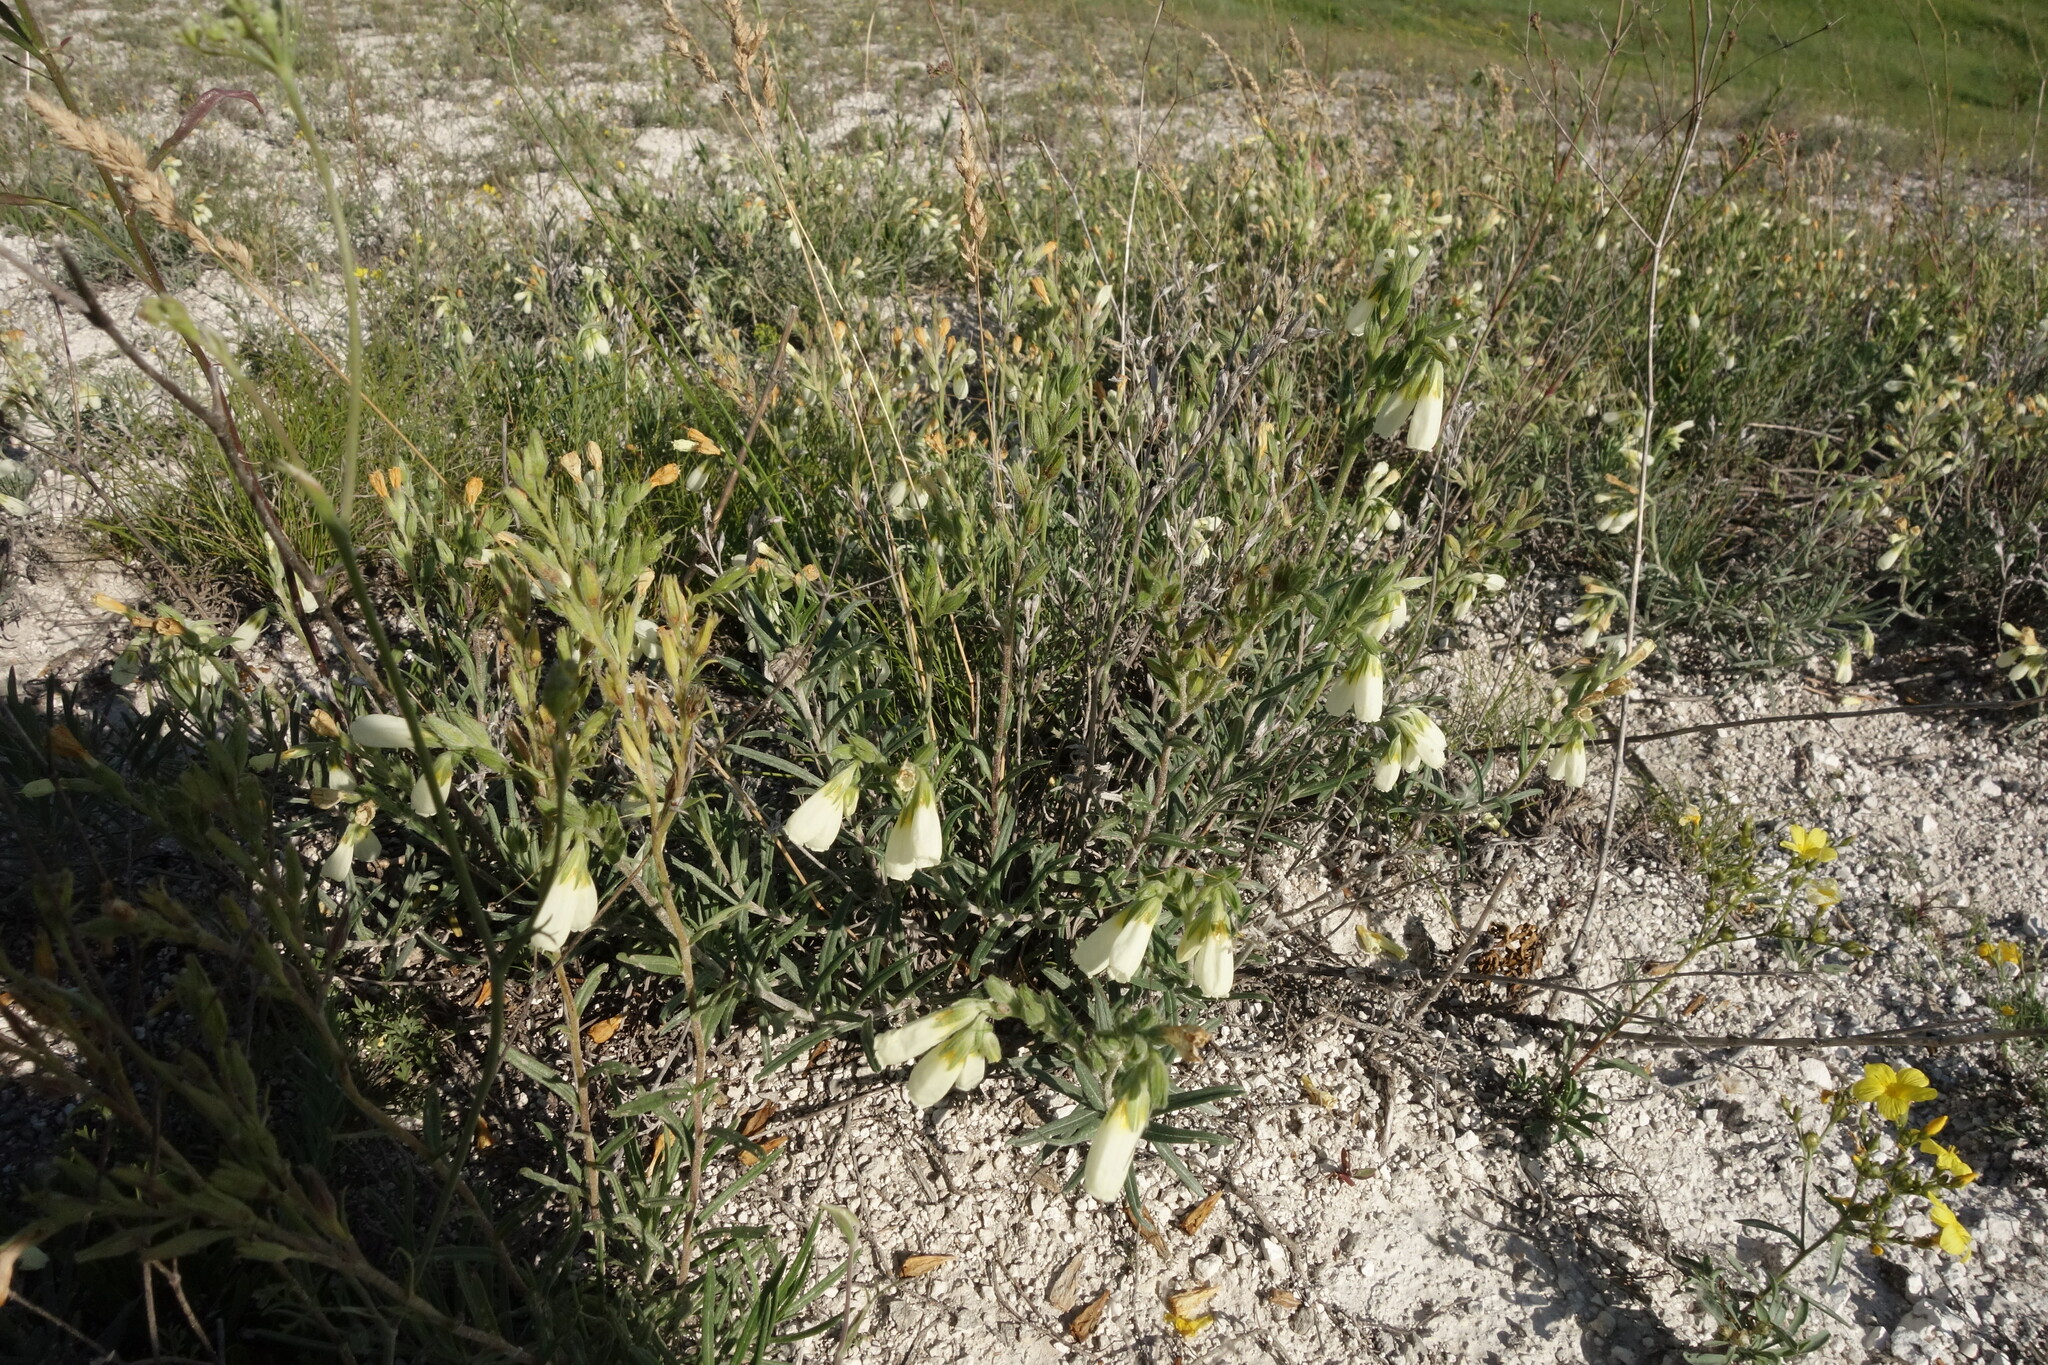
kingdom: Plantae
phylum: Tracheophyta
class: Magnoliopsida
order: Boraginales
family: Boraginaceae
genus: Onosma
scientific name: Onosma simplicissima
